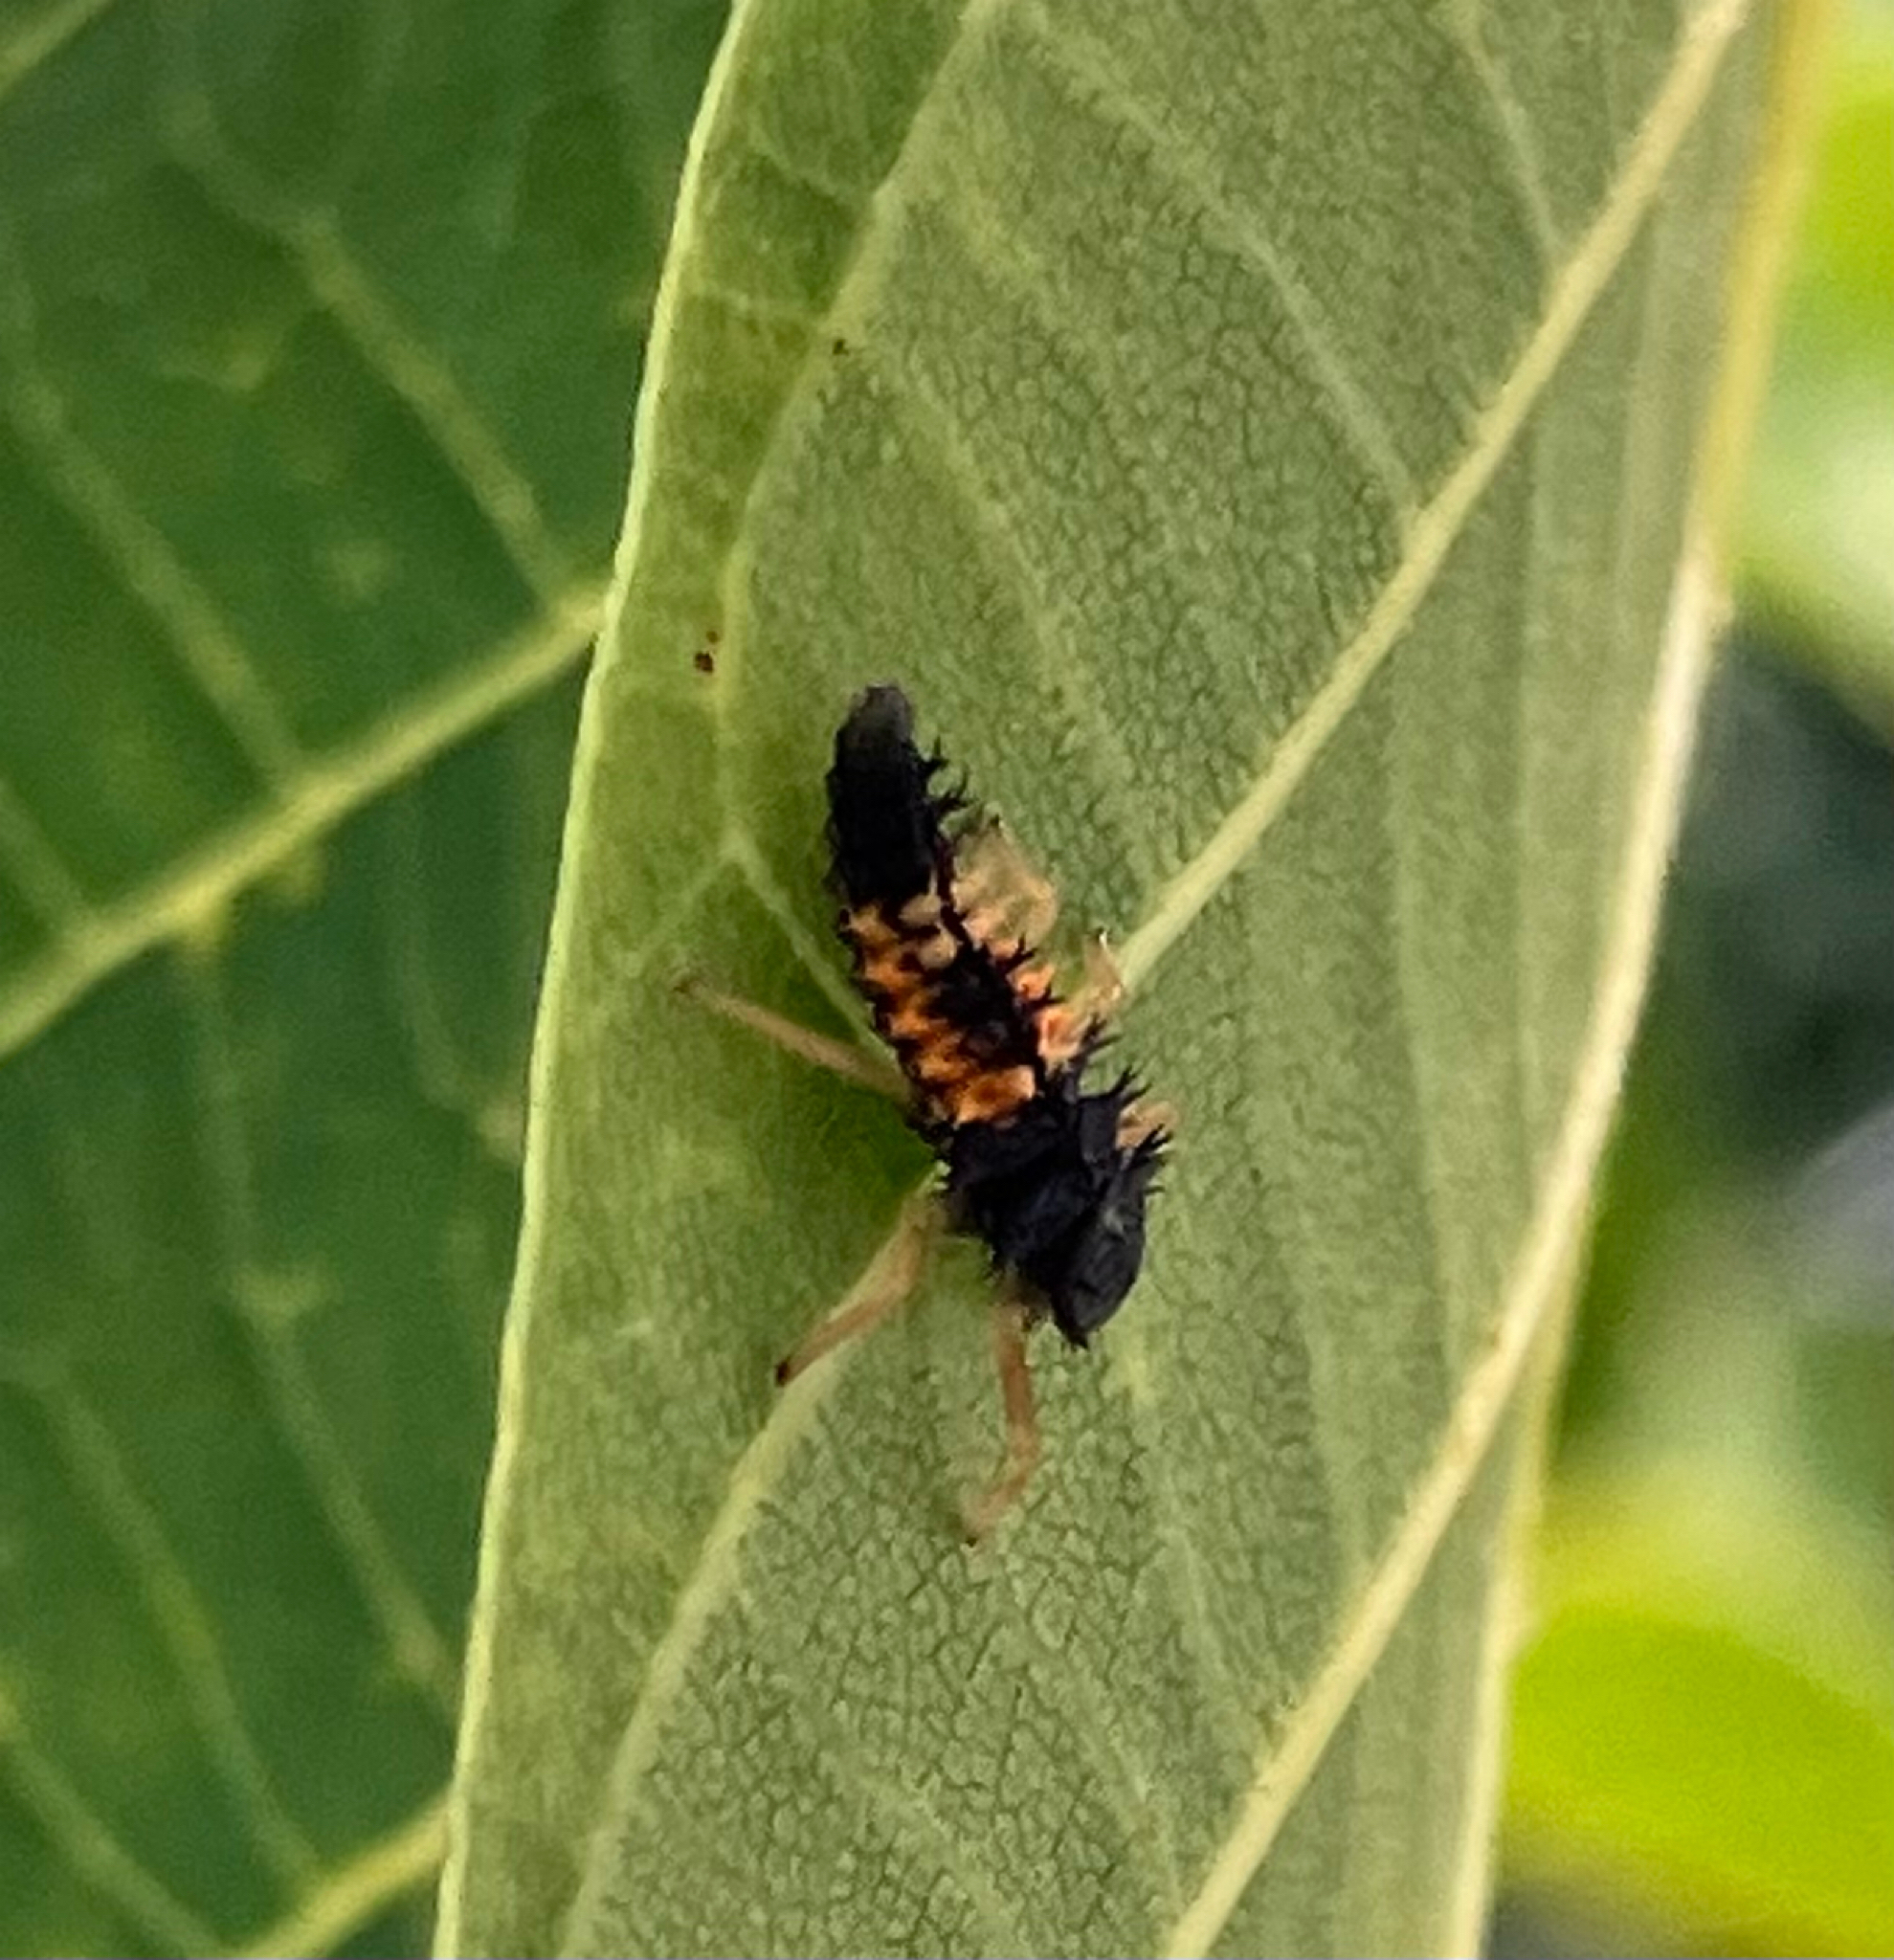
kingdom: Animalia
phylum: Arthropoda
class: Insecta
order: Coleoptera
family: Coccinellidae
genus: Harmonia
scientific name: Harmonia axyridis
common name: Harlequin ladybird
